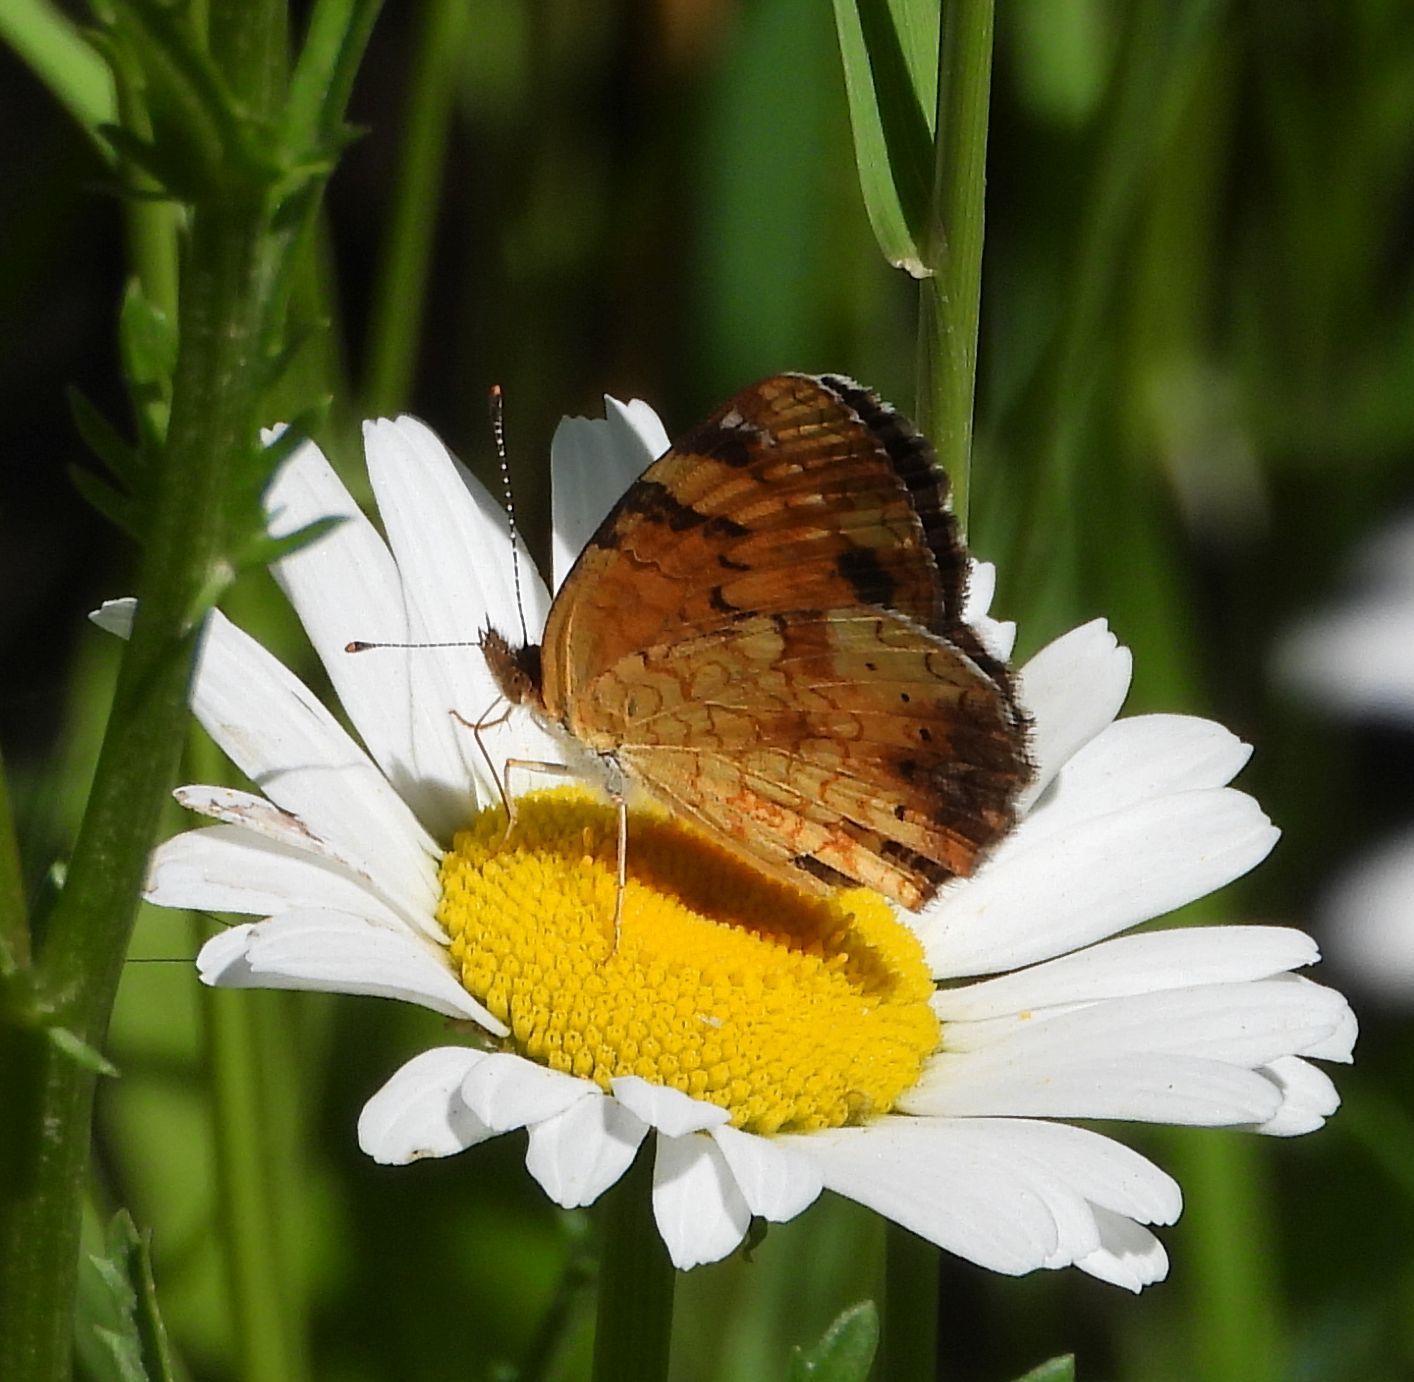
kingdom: Animalia
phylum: Arthropoda
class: Insecta
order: Lepidoptera
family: Nymphalidae
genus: Phyciodes
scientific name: Phyciodes tharos
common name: Pearl crescent
